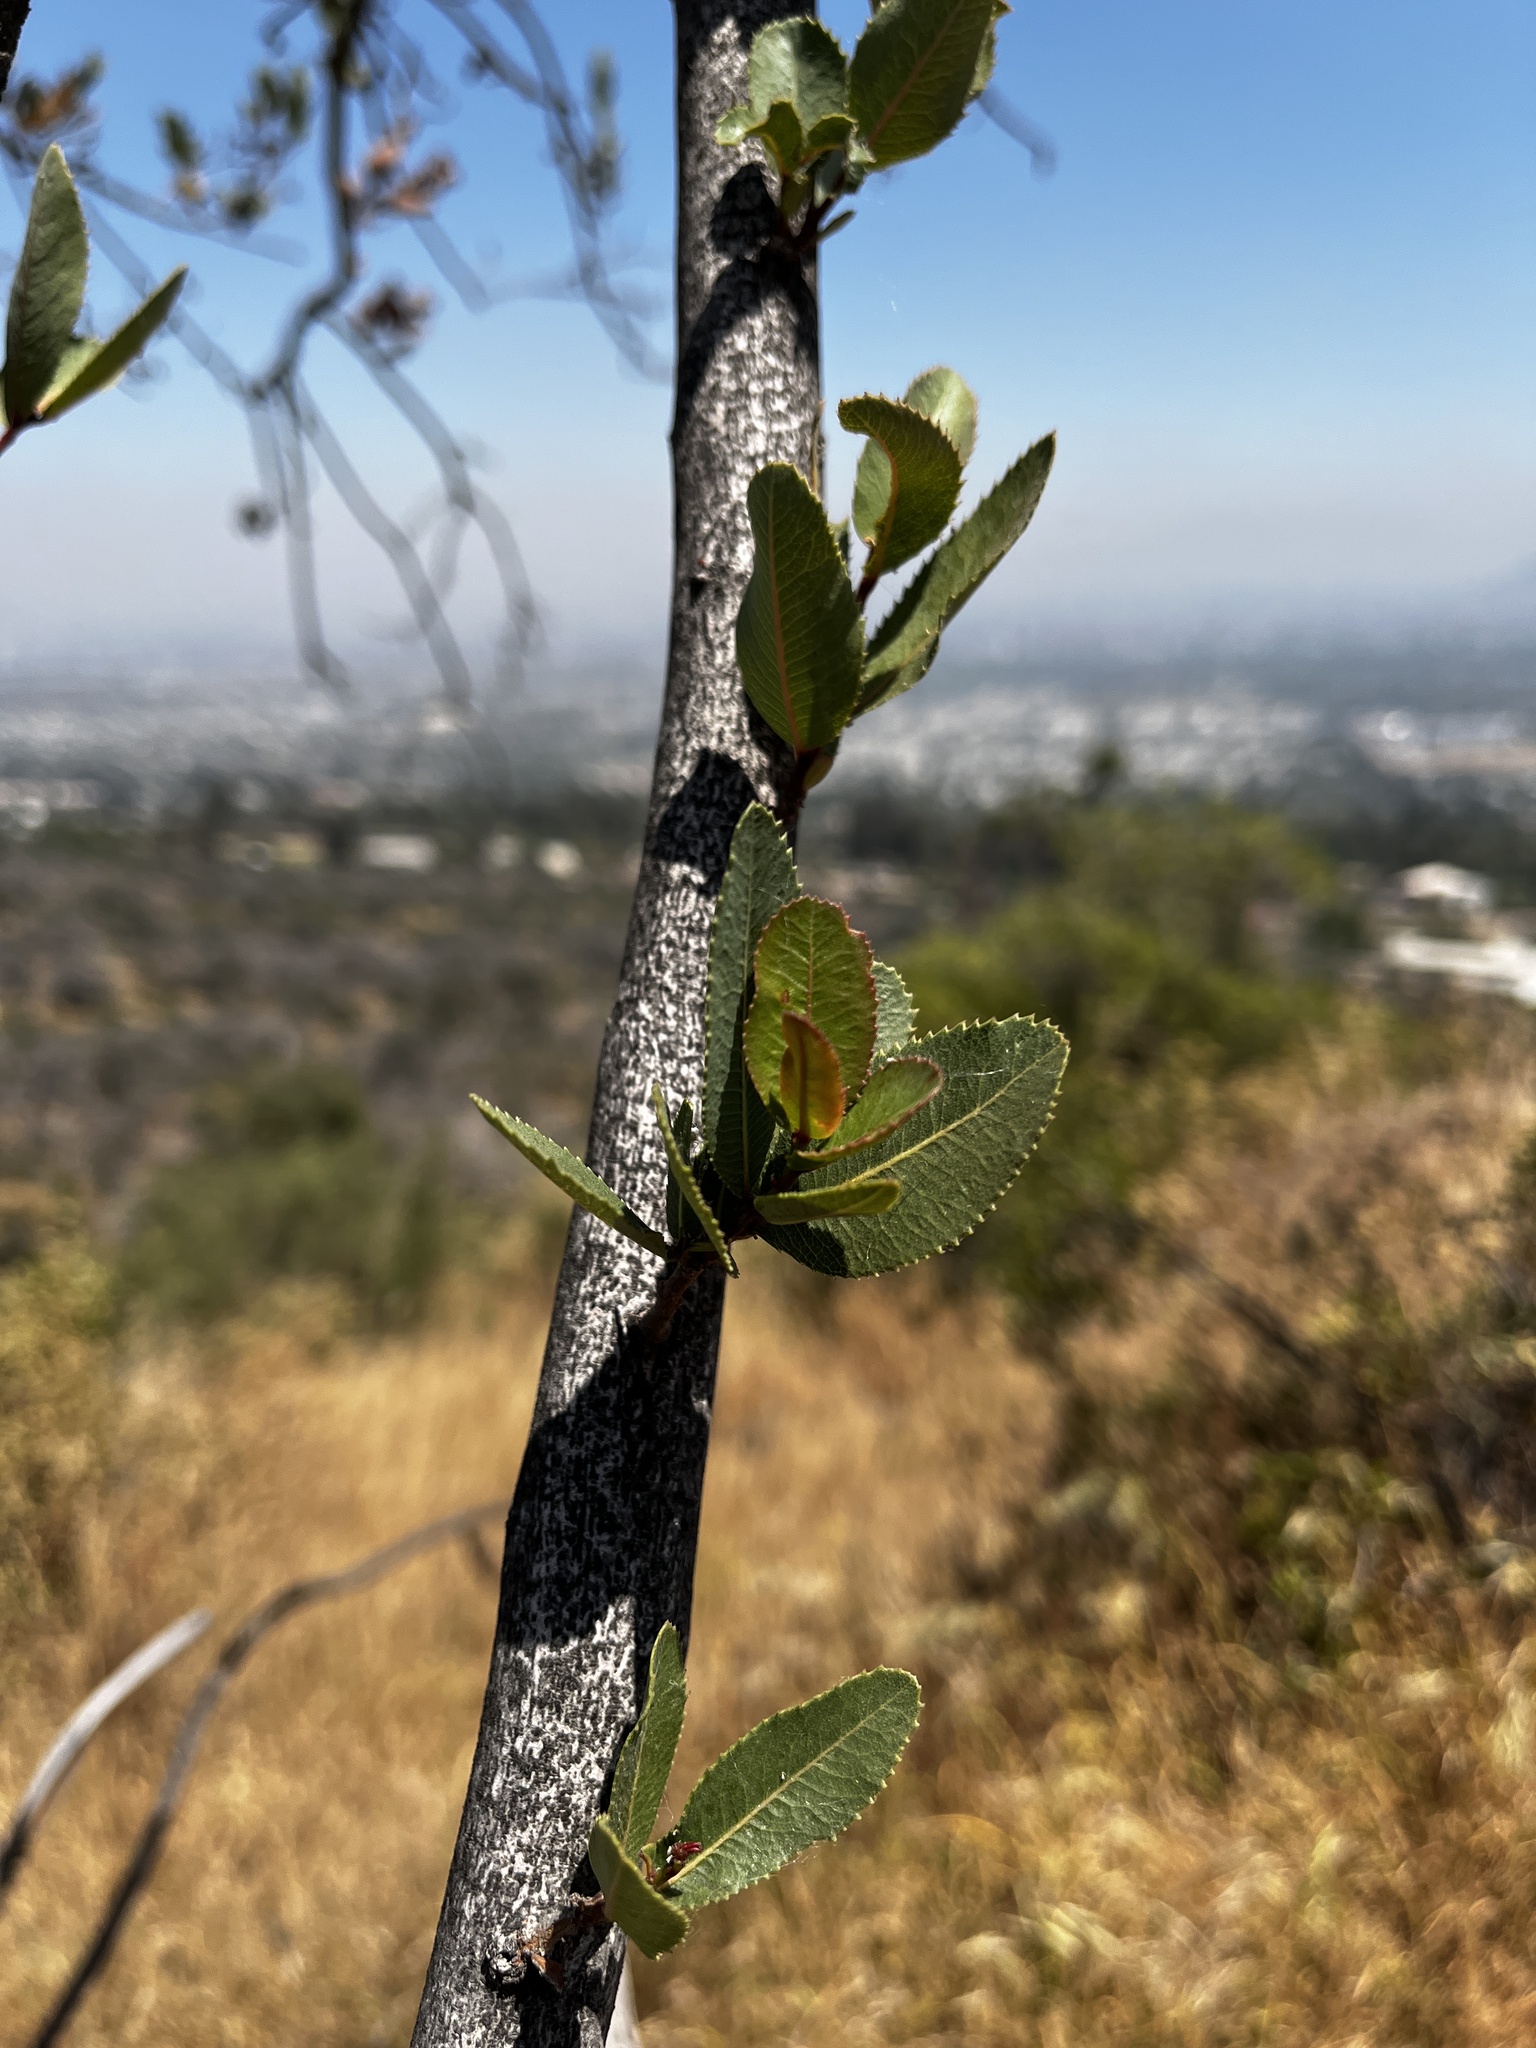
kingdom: Plantae
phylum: Tracheophyta
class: Magnoliopsida
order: Rosales
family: Rosaceae
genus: Kageneckia
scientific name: Kageneckia oblonga
